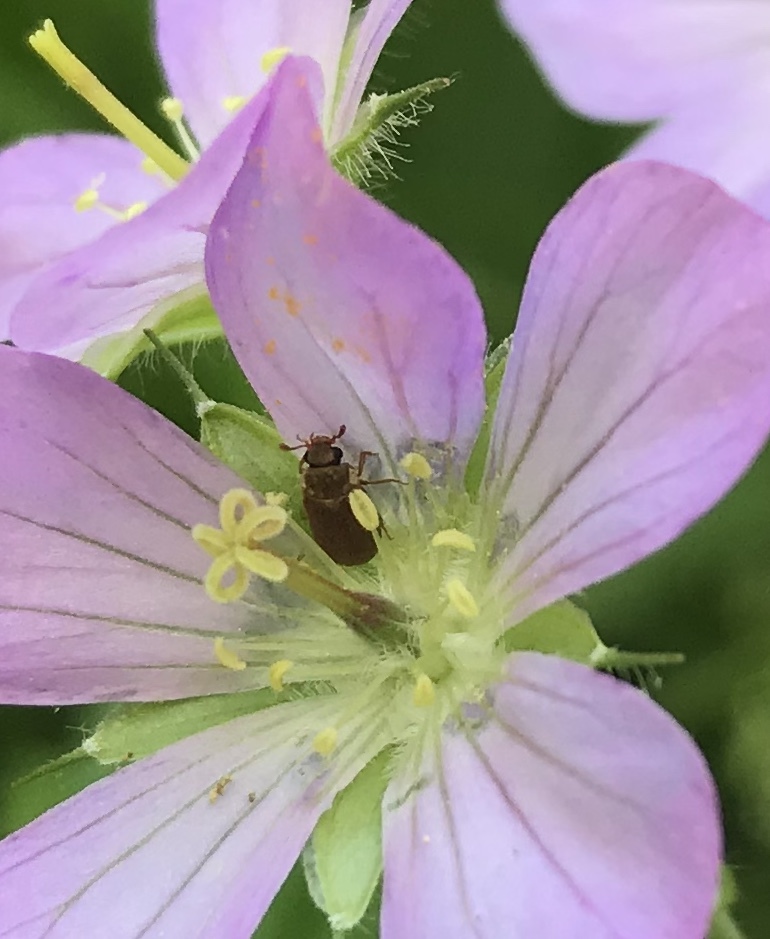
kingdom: Animalia
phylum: Arthropoda
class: Insecta
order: Coleoptera
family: Byturidae
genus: Byturus
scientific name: Byturus unicolor
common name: Raspberry fruitworm beetle
